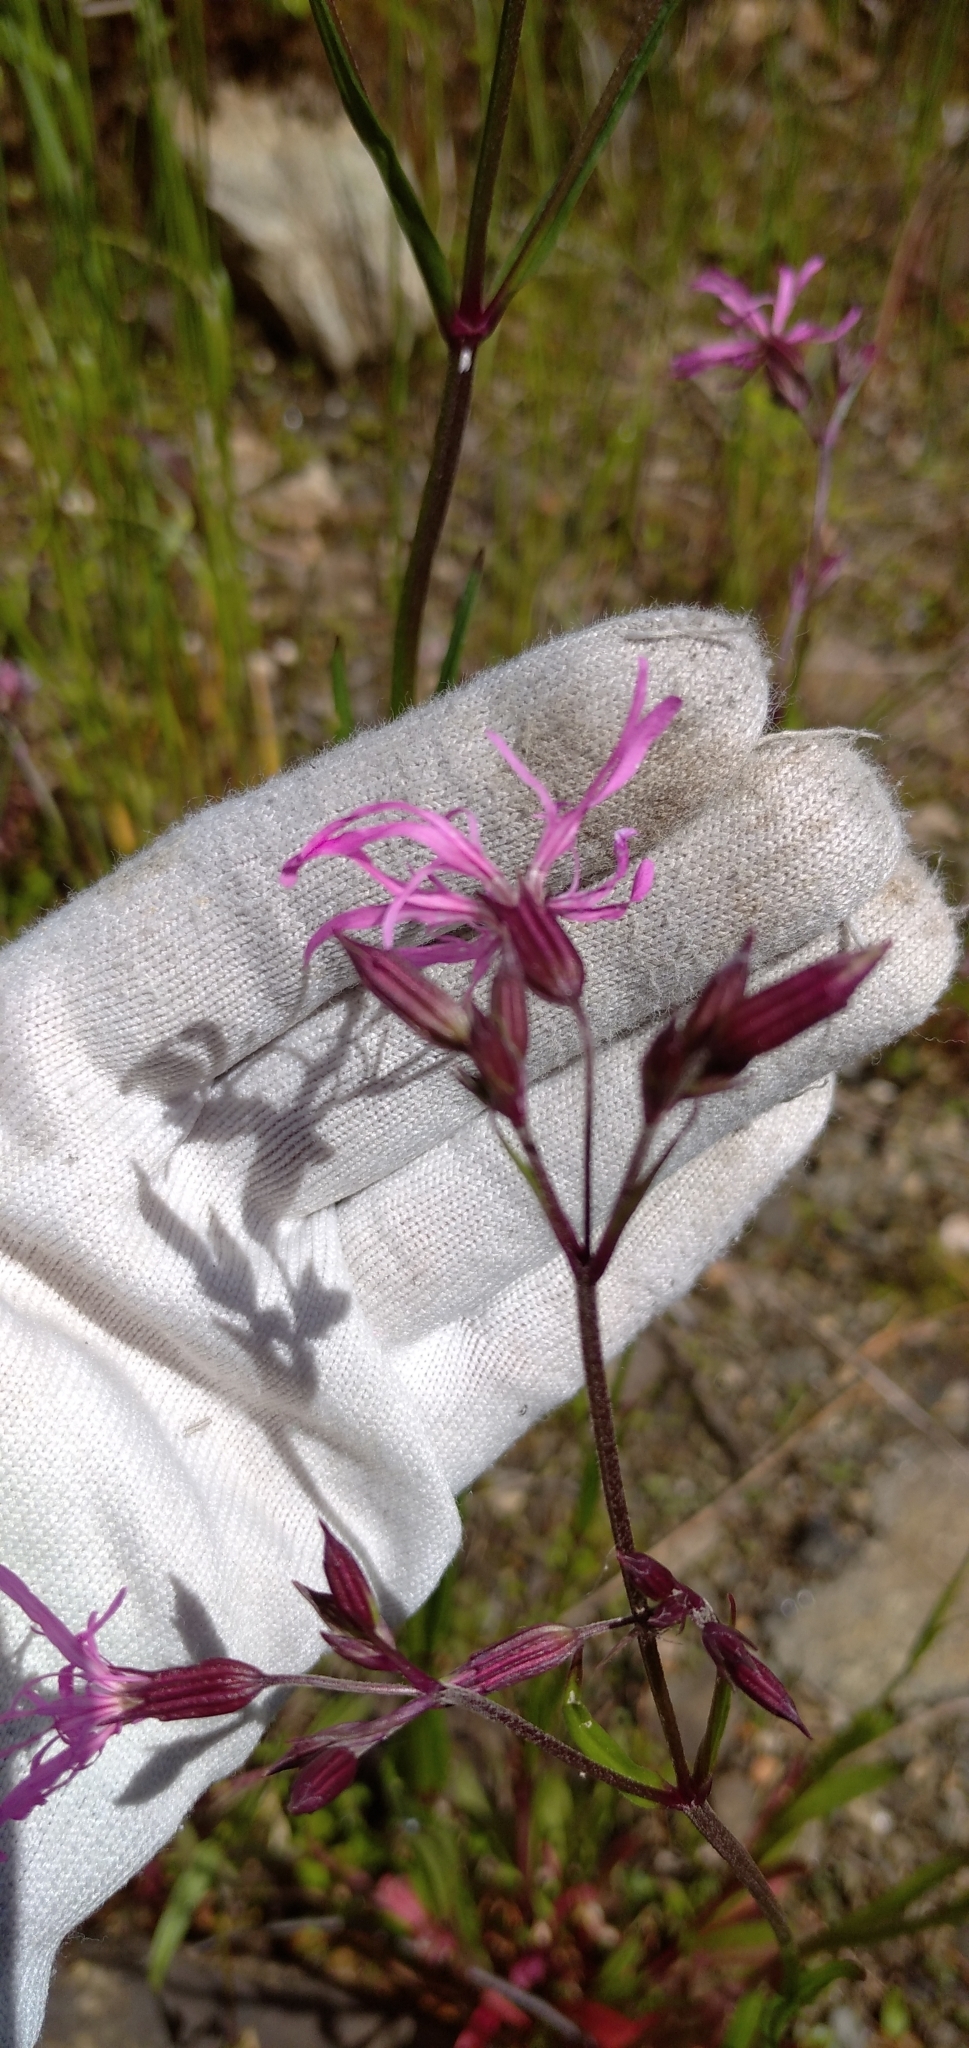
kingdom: Plantae
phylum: Tracheophyta
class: Magnoliopsida
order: Caryophyllales
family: Caryophyllaceae
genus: Silene
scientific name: Silene flos-cuculi
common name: Ragged-robin
